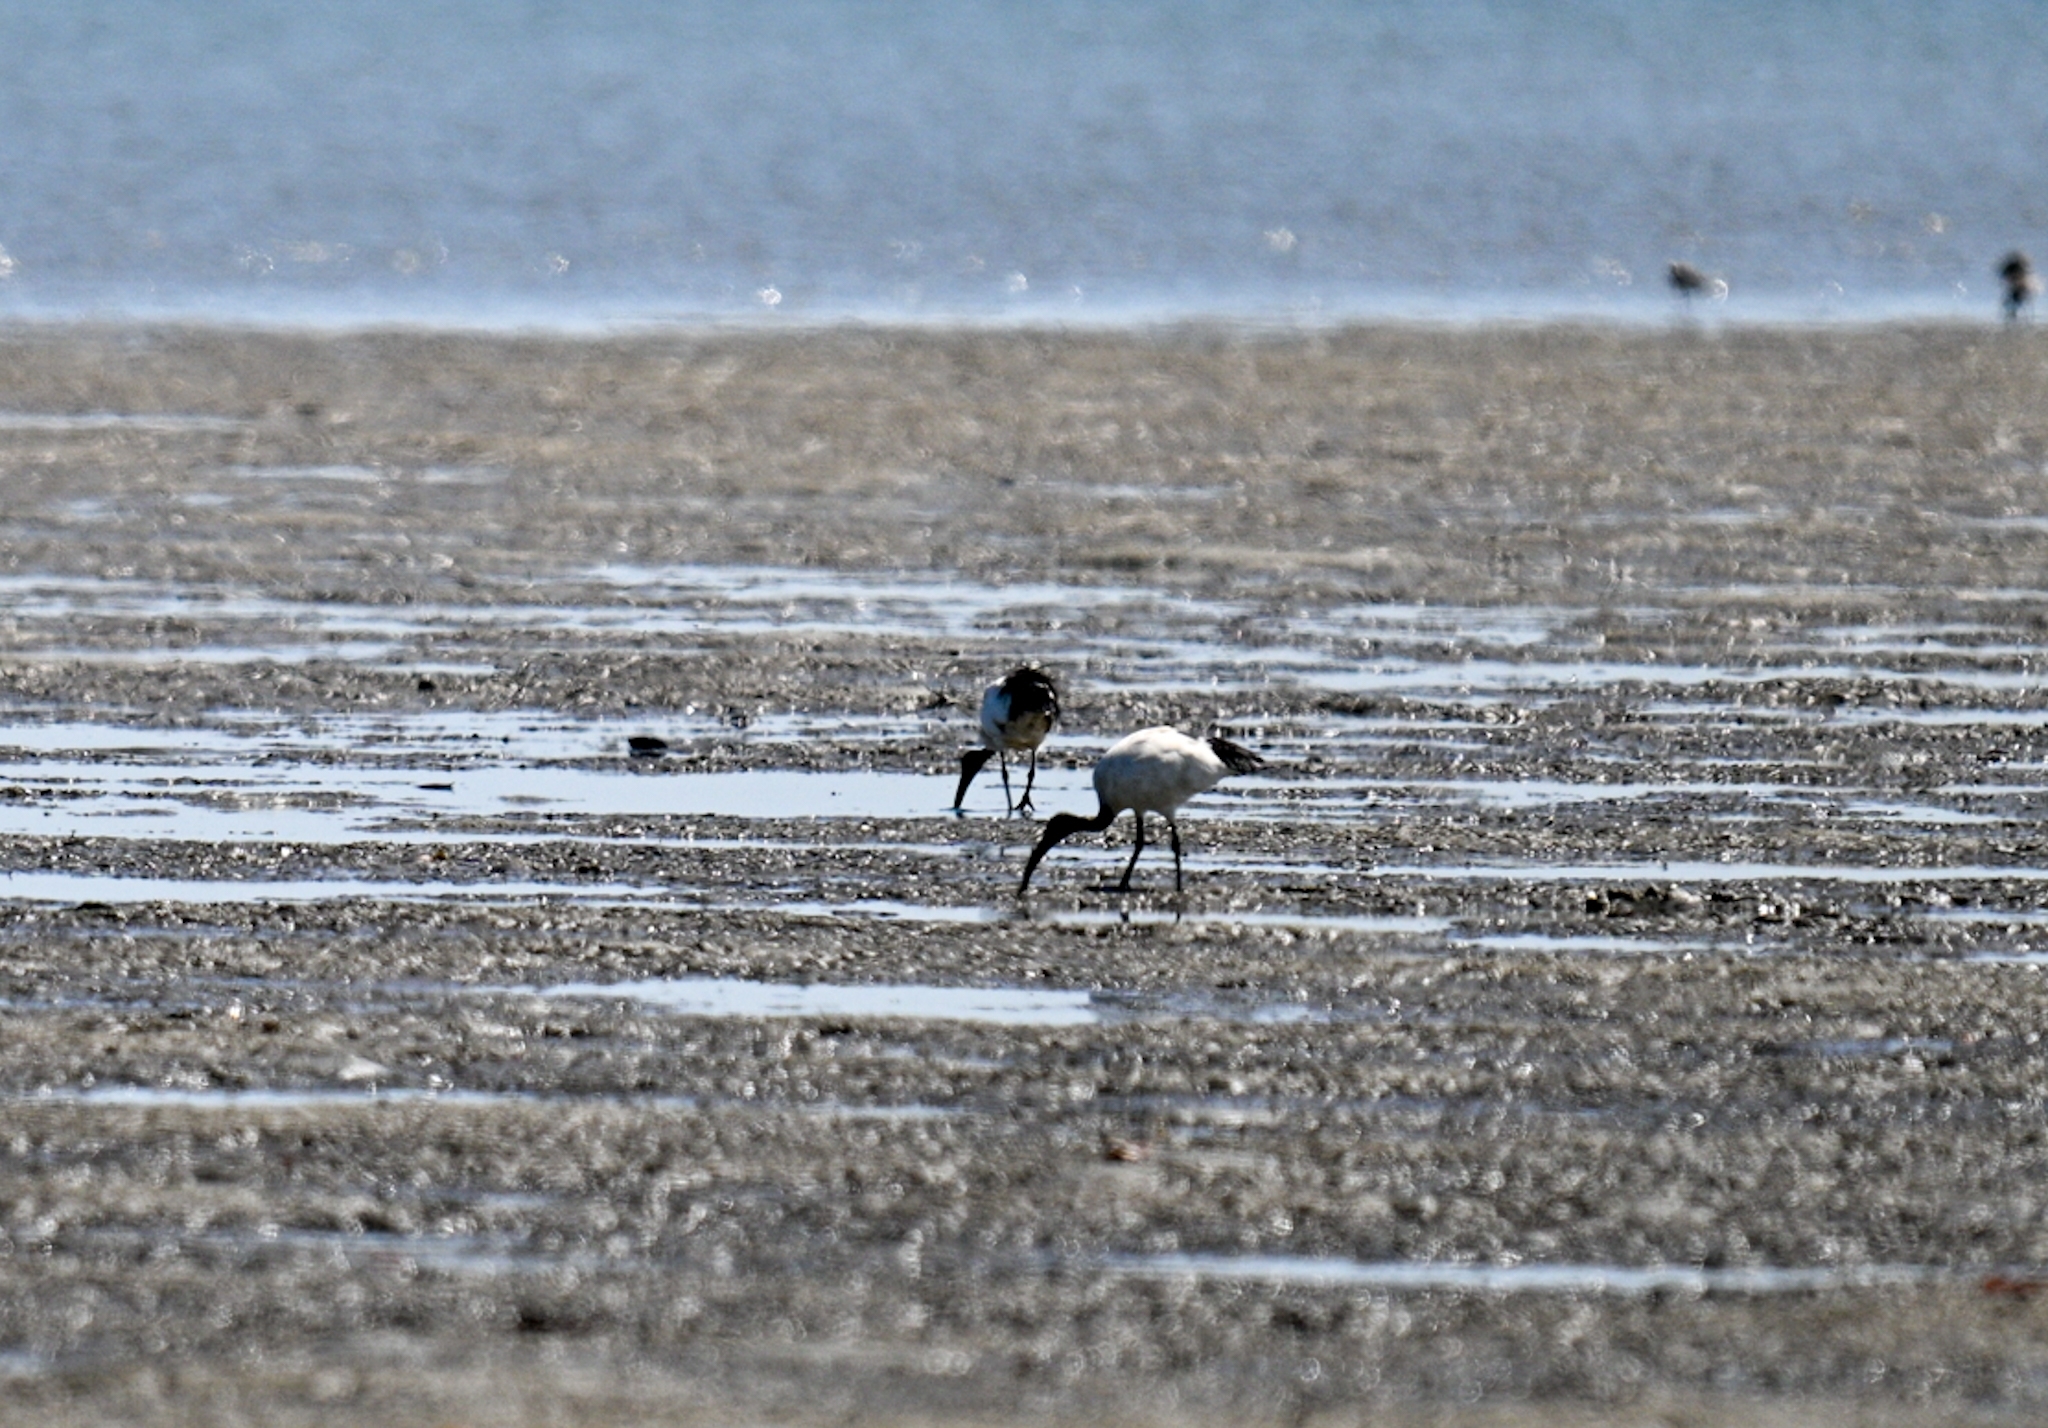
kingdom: Animalia
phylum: Chordata
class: Aves
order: Pelecaniformes
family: Threskiornithidae
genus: Threskiornis
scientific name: Threskiornis aethiopicus
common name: Sacred ibis
